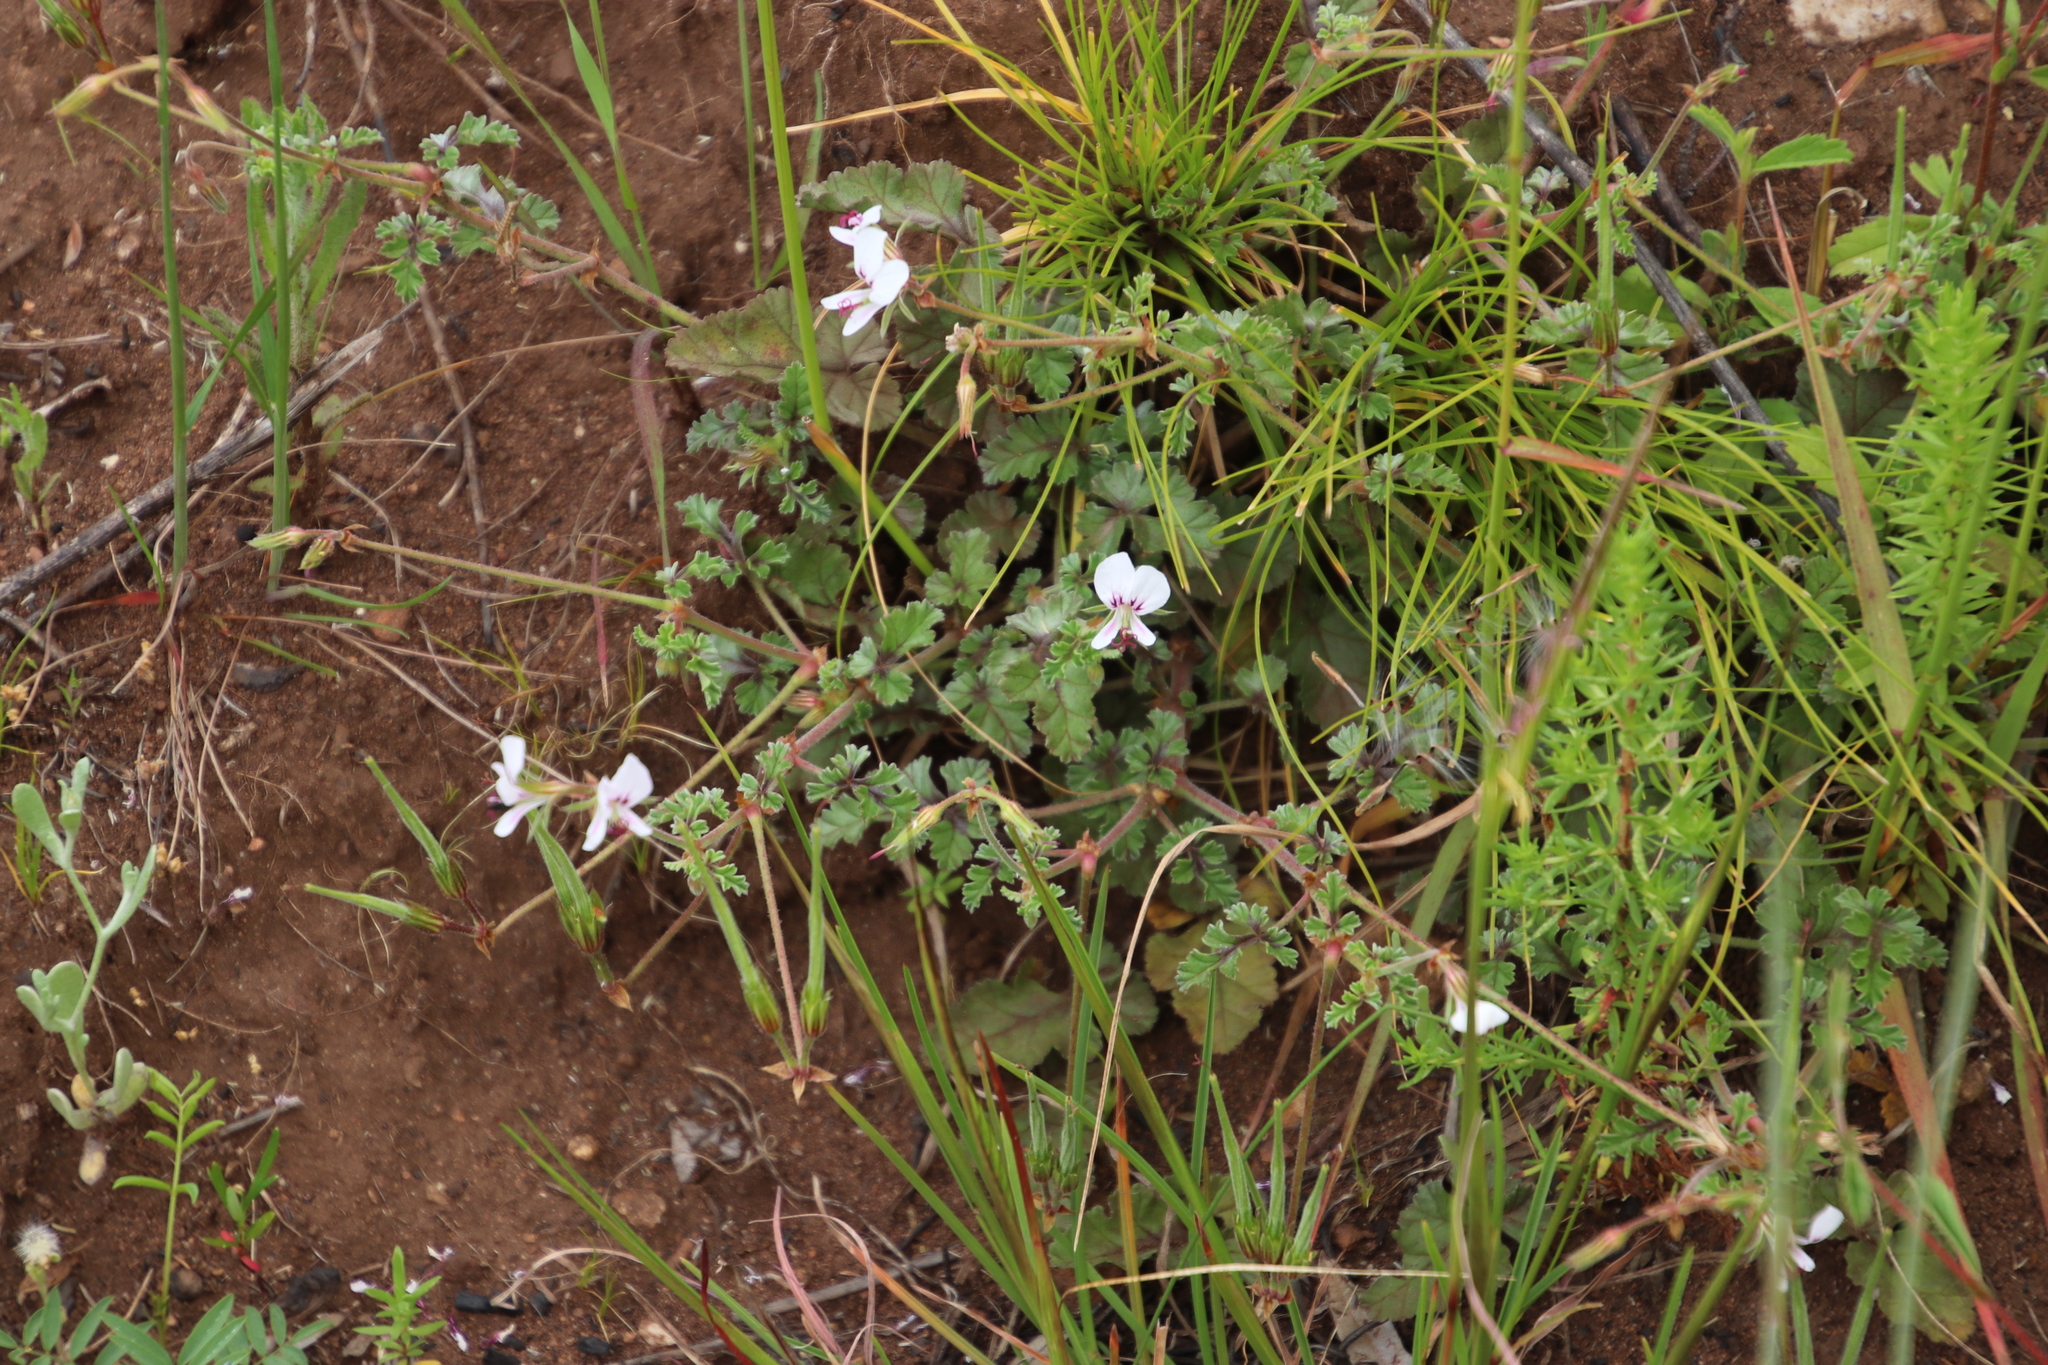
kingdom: Plantae
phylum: Tracheophyta
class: Magnoliopsida
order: Geraniales
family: Geraniaceae
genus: Pelargonium
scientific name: Pelargonium candicans
